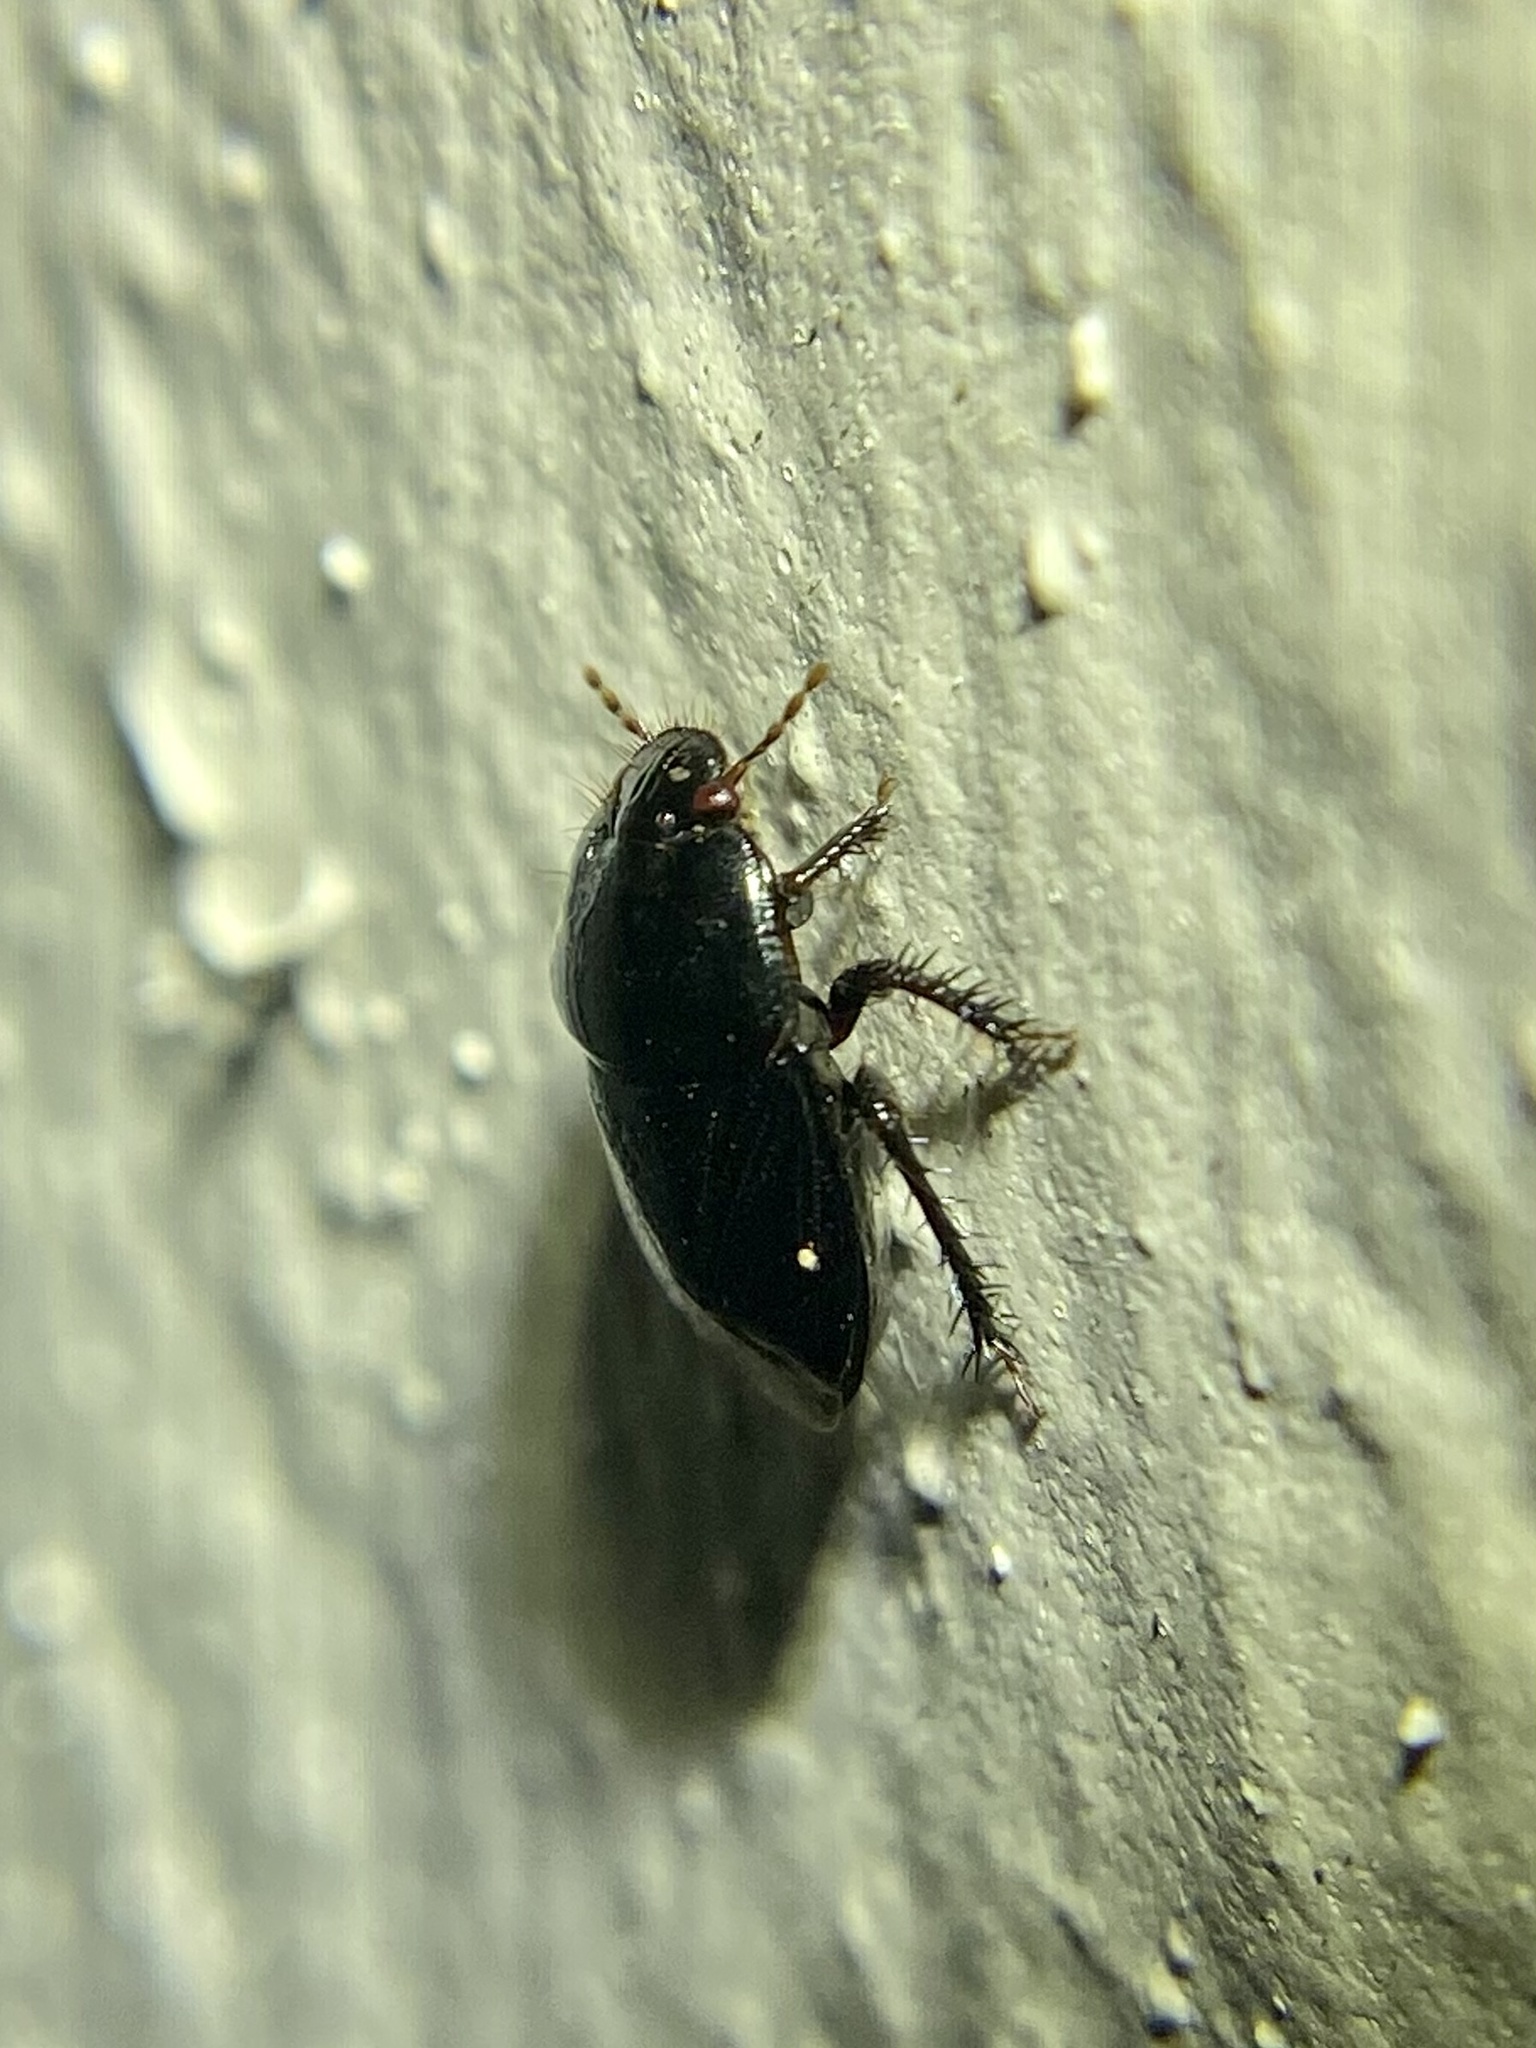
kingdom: Animalia
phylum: Arthropoda
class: Insecta
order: Hemiptera
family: Cydnidae
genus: Pangaeus
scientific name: Pangaeus bilineatus
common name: Burrower bug
